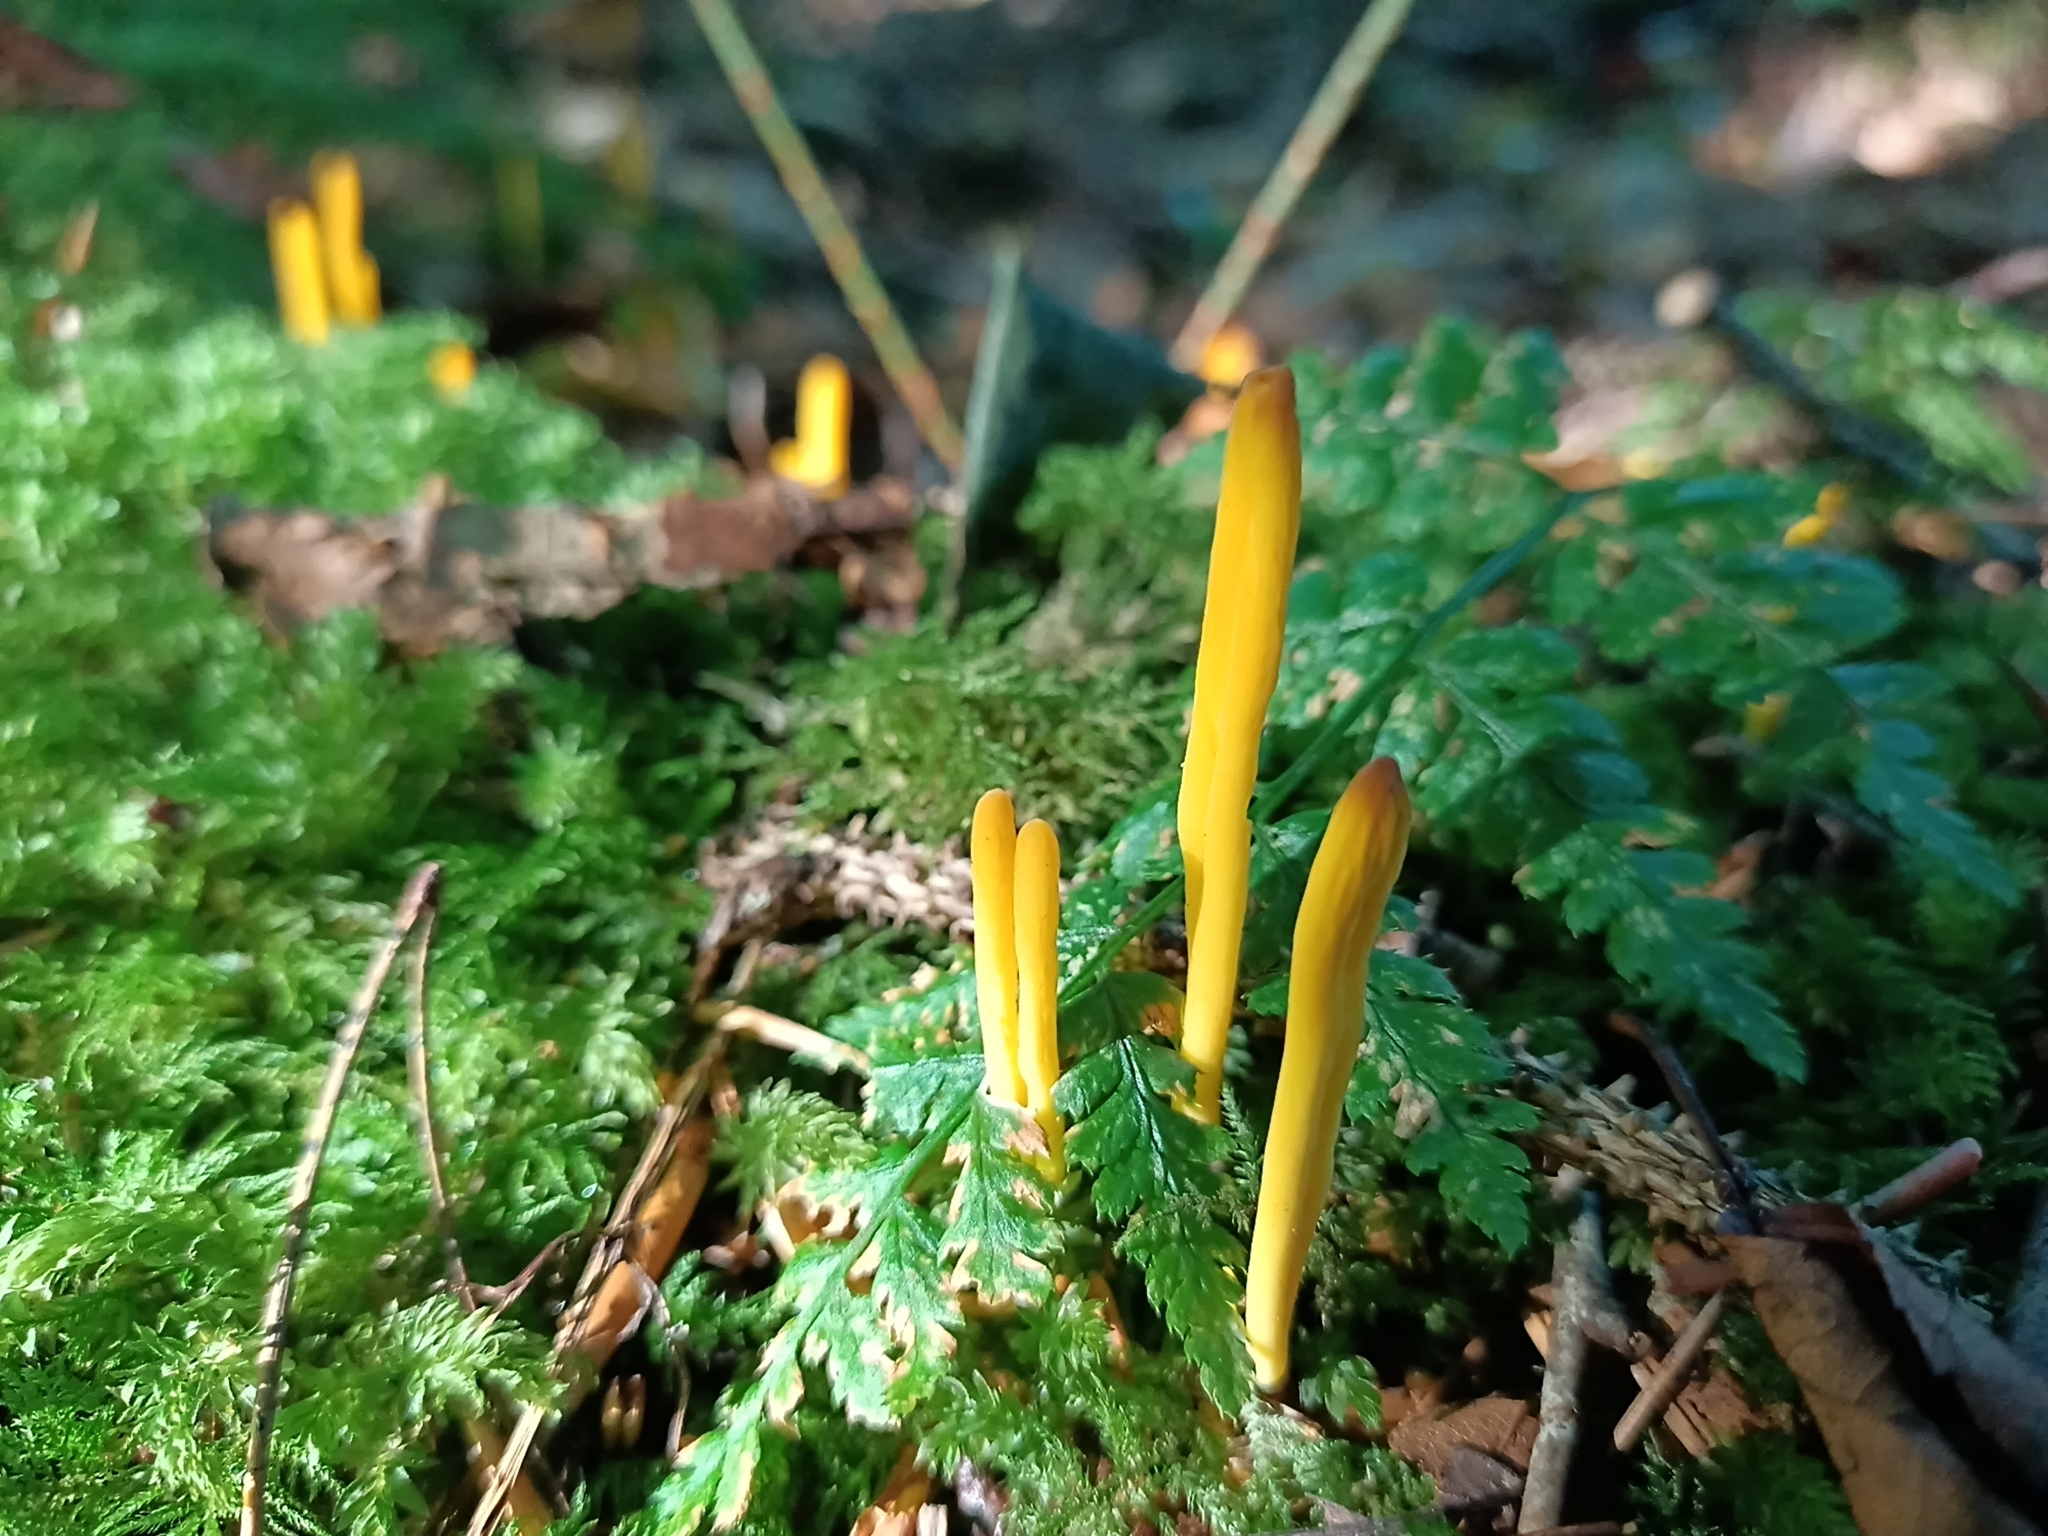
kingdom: Fungi
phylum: Basidiomycota
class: Agaricomycetes
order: Agaricales
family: Clavariaceae
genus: Clavulinopsis
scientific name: Clavulinopsis helvola
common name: Yellow club
